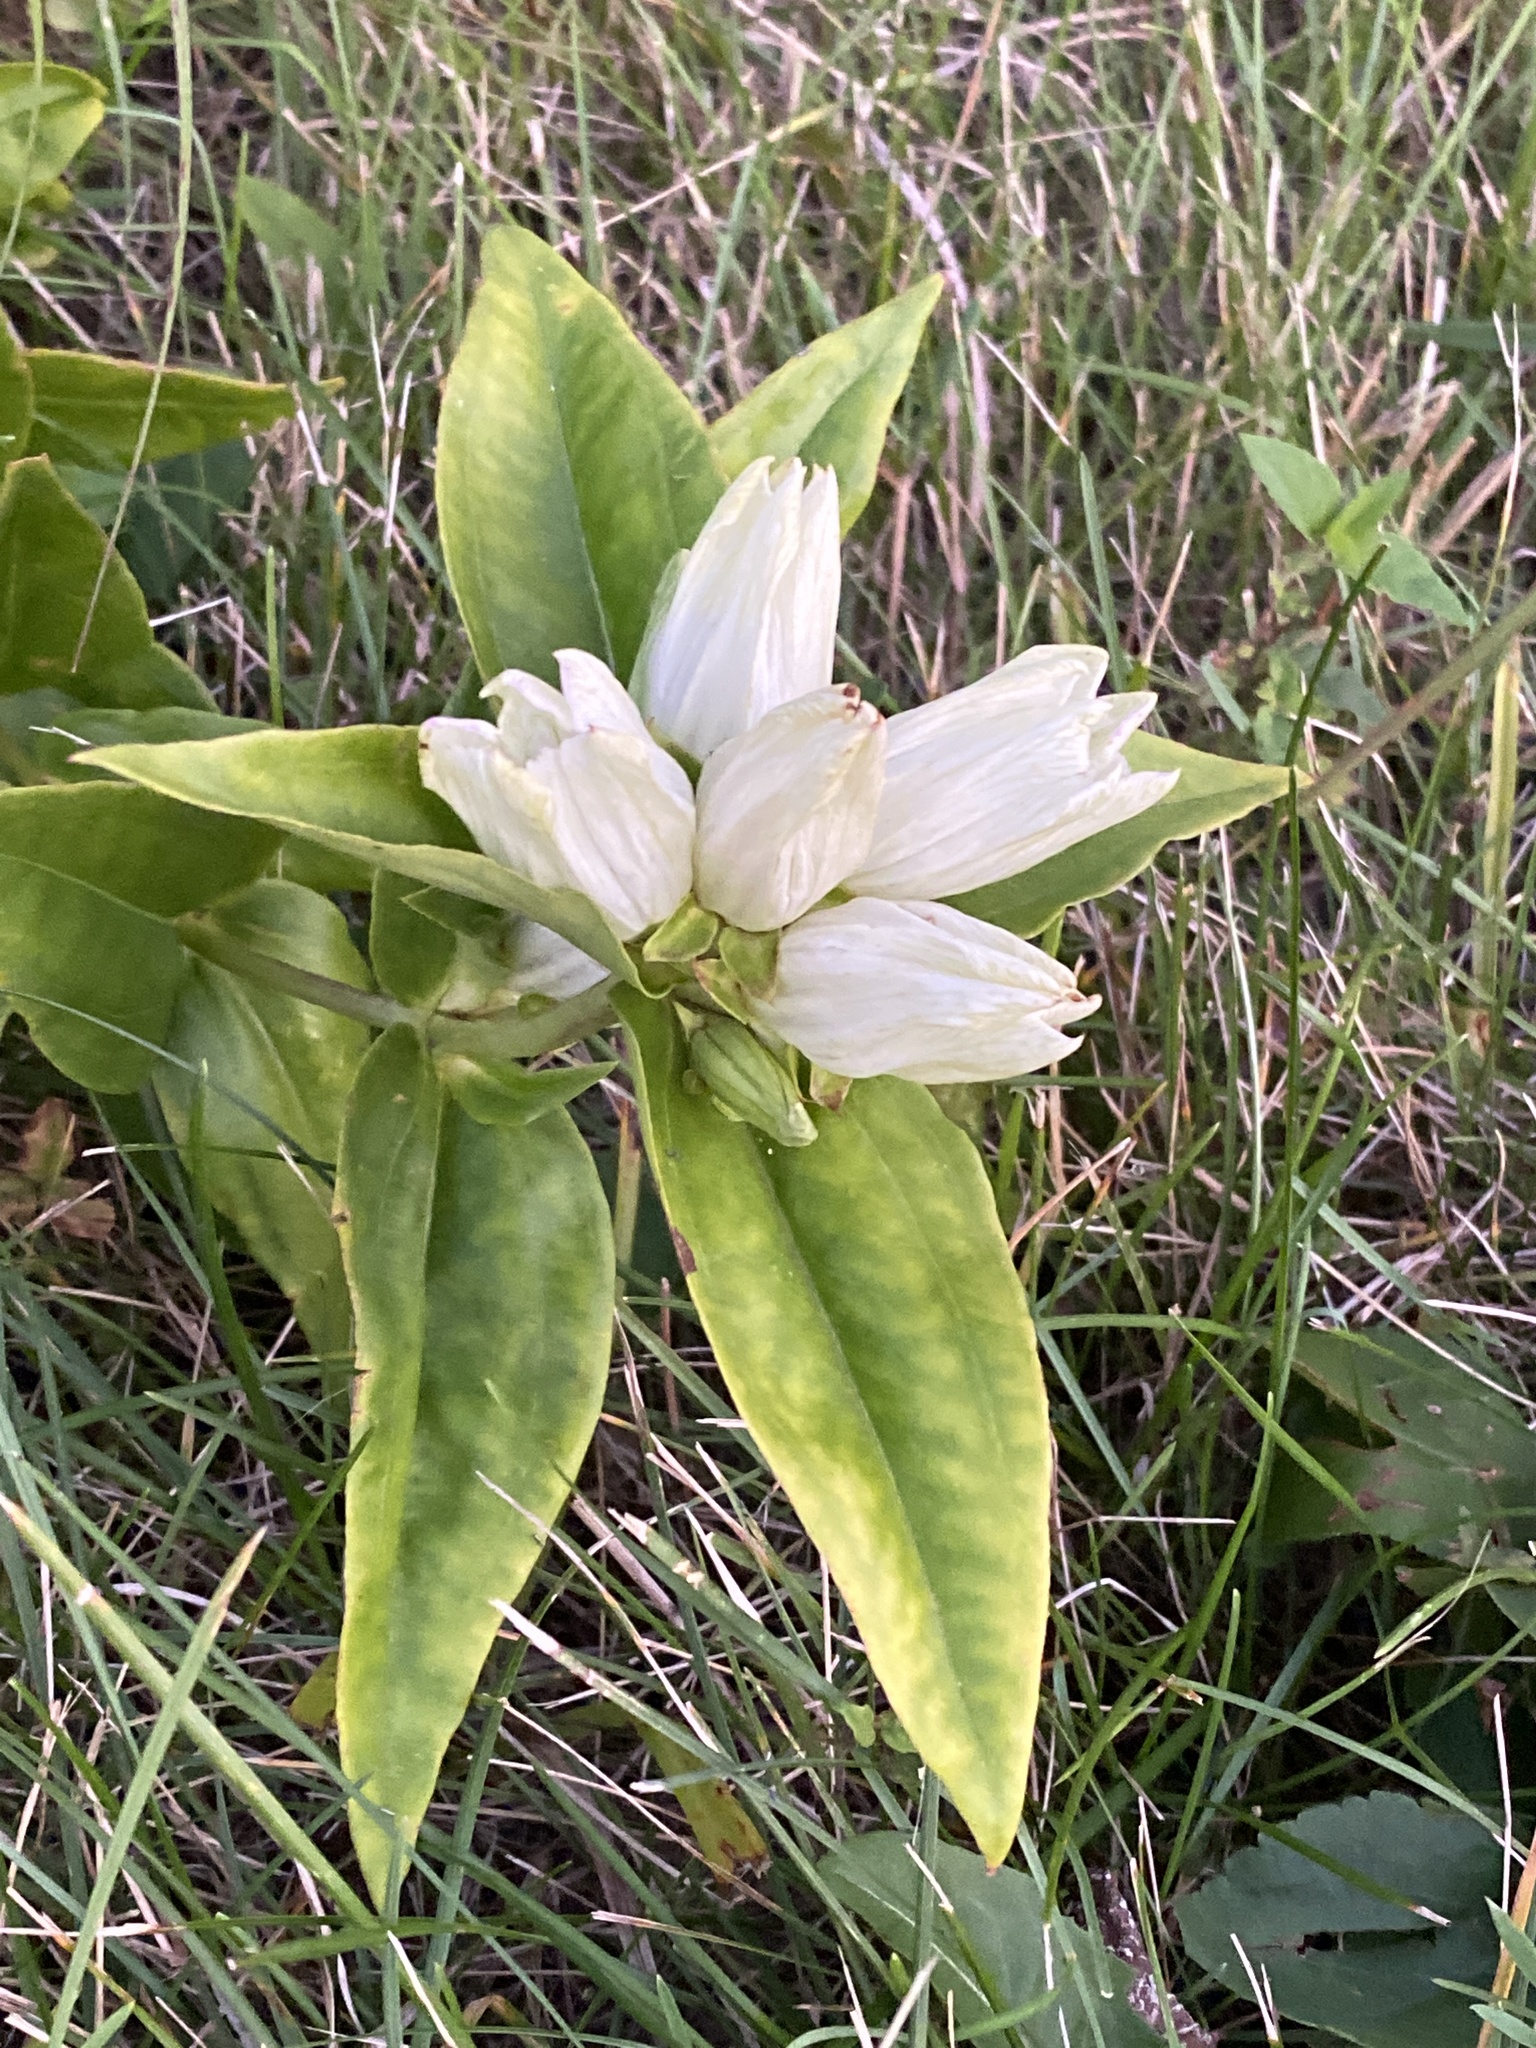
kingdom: Plantae
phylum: Tracheophyta
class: Magnoliopsida
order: Gentianales
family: Gentianaceae
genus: Gentiana
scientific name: Gentiana alba
